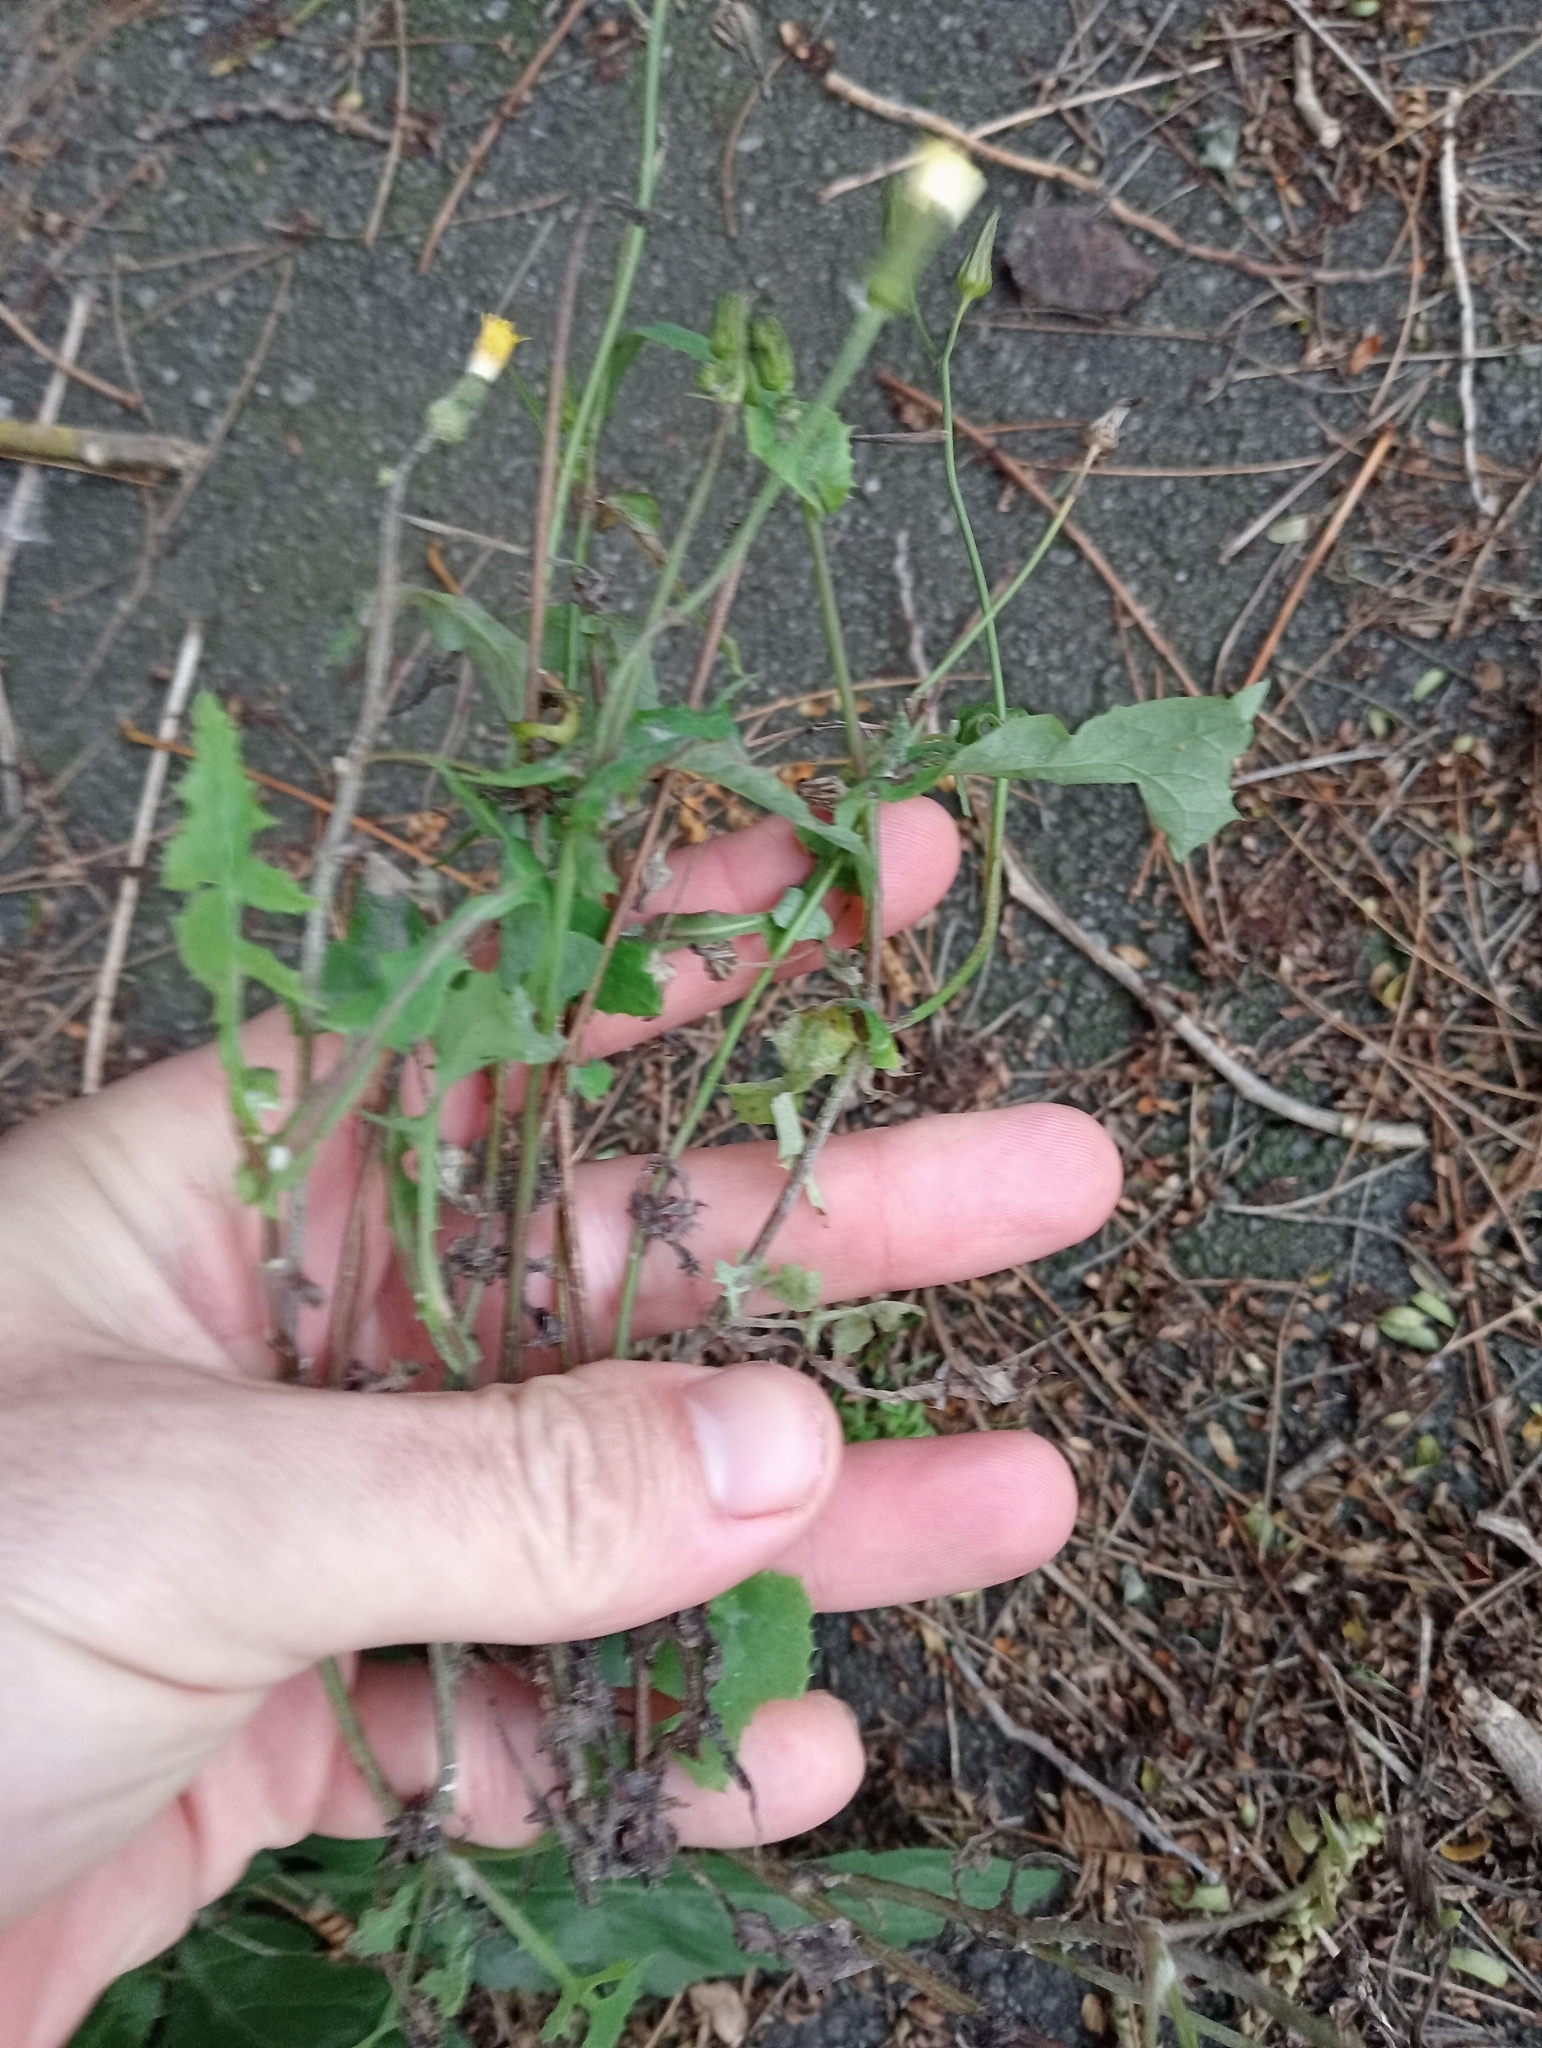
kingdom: Plantae
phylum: Tracheophyta
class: Magnoliopsida
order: Asterales
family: Asteraceae
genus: Sonchus
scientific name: Sonchus oleraceus
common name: Common sowthistle
